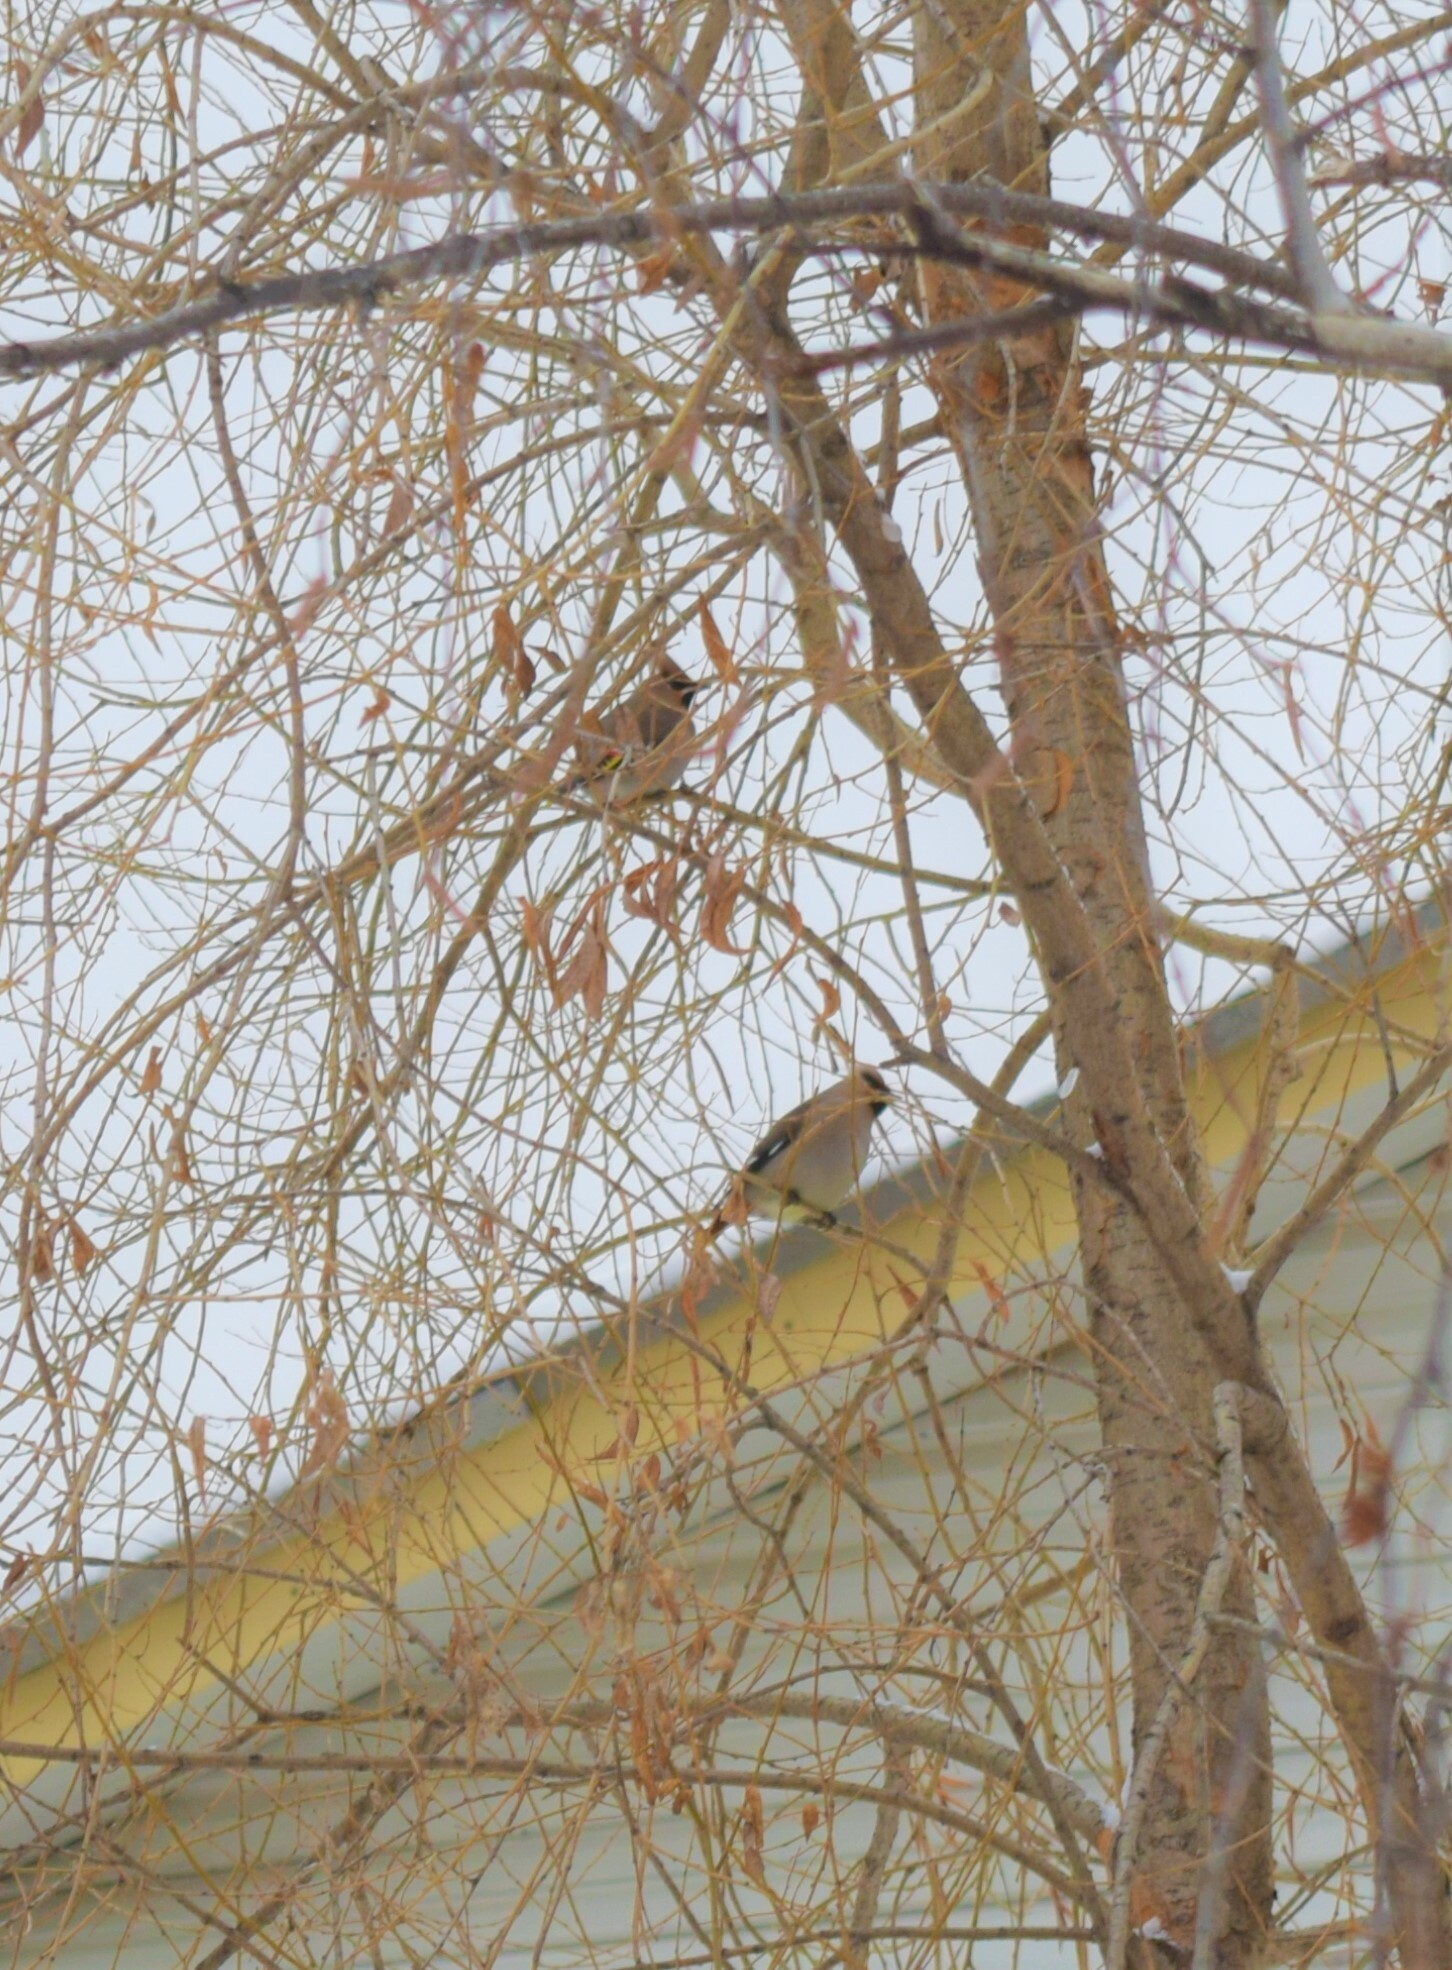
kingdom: Animalia
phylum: Chordata
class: Aves
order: Passeriformes
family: Bombycillidae
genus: Bombycilla
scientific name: Bombycilla garrulus
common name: Bohemian waxwing
